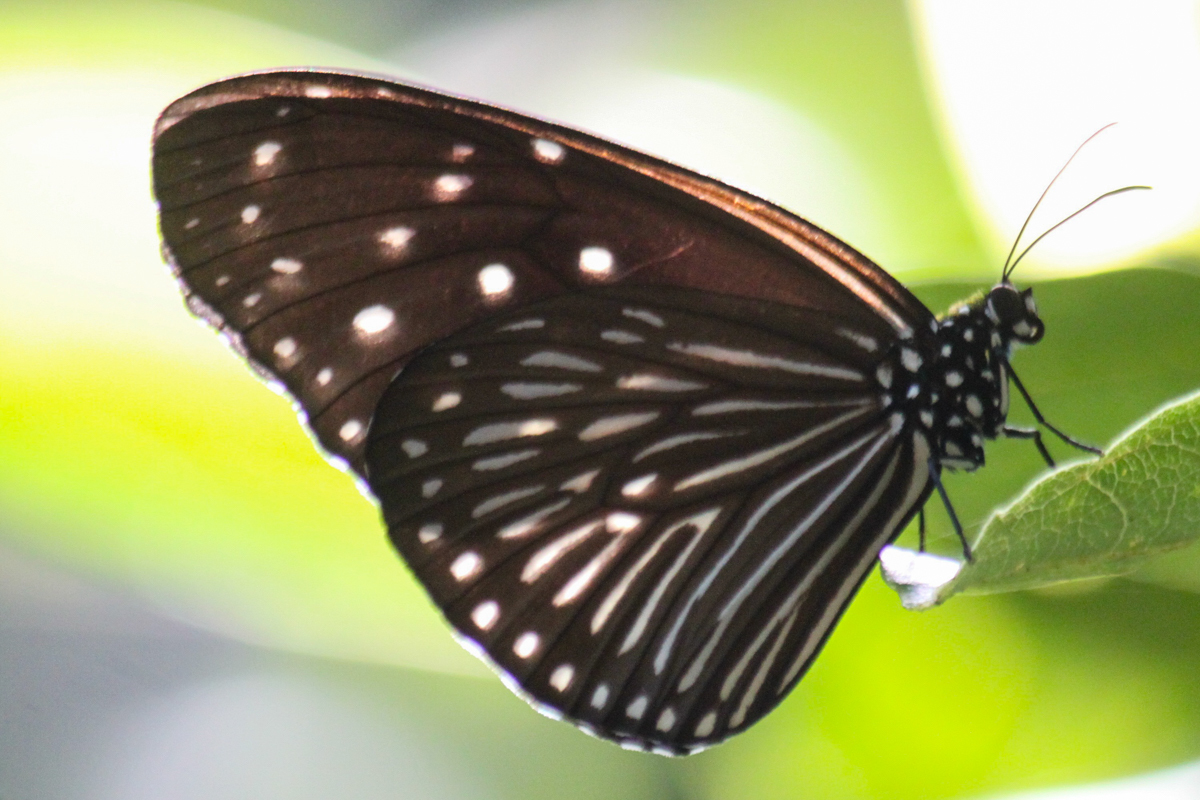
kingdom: Animalia
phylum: Arthropoda
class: Insecta
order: Lepidoptera
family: Nymphalidae
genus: Euploea
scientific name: Euploea mulciber
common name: Striped blue crow butterfly
